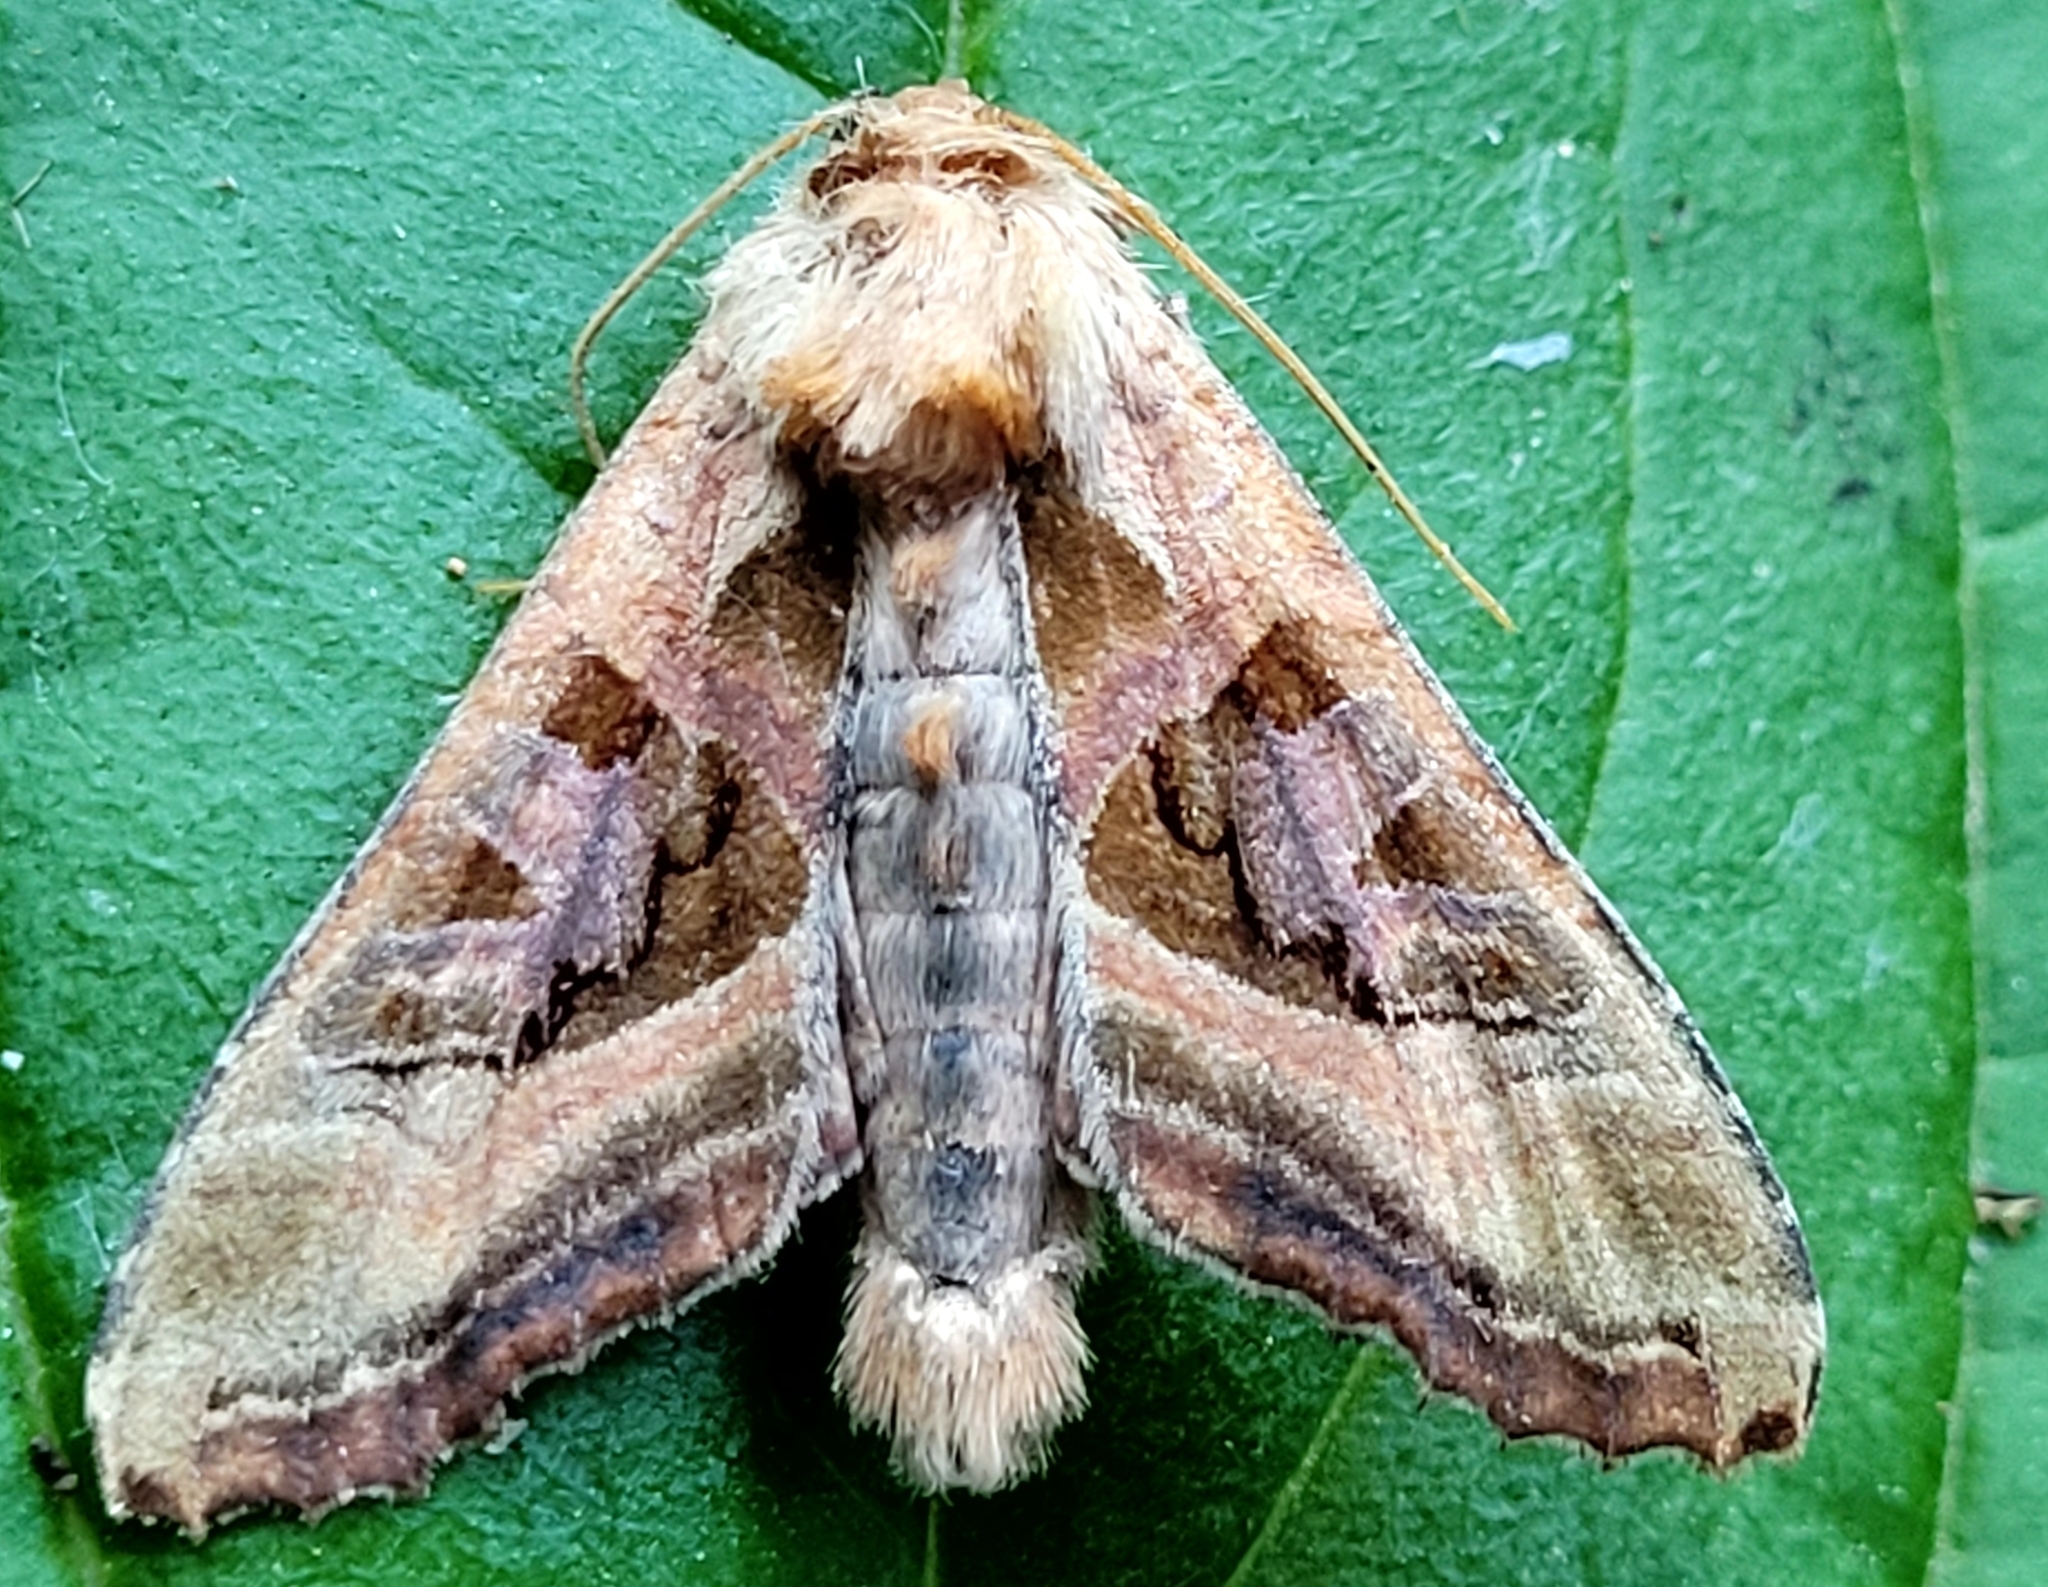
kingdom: Animalia
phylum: Arthropoda
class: Insecta
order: Lepidoptera
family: Noctuidae
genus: Phlogophora
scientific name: Phlogophora iris
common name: Olive angle shades
